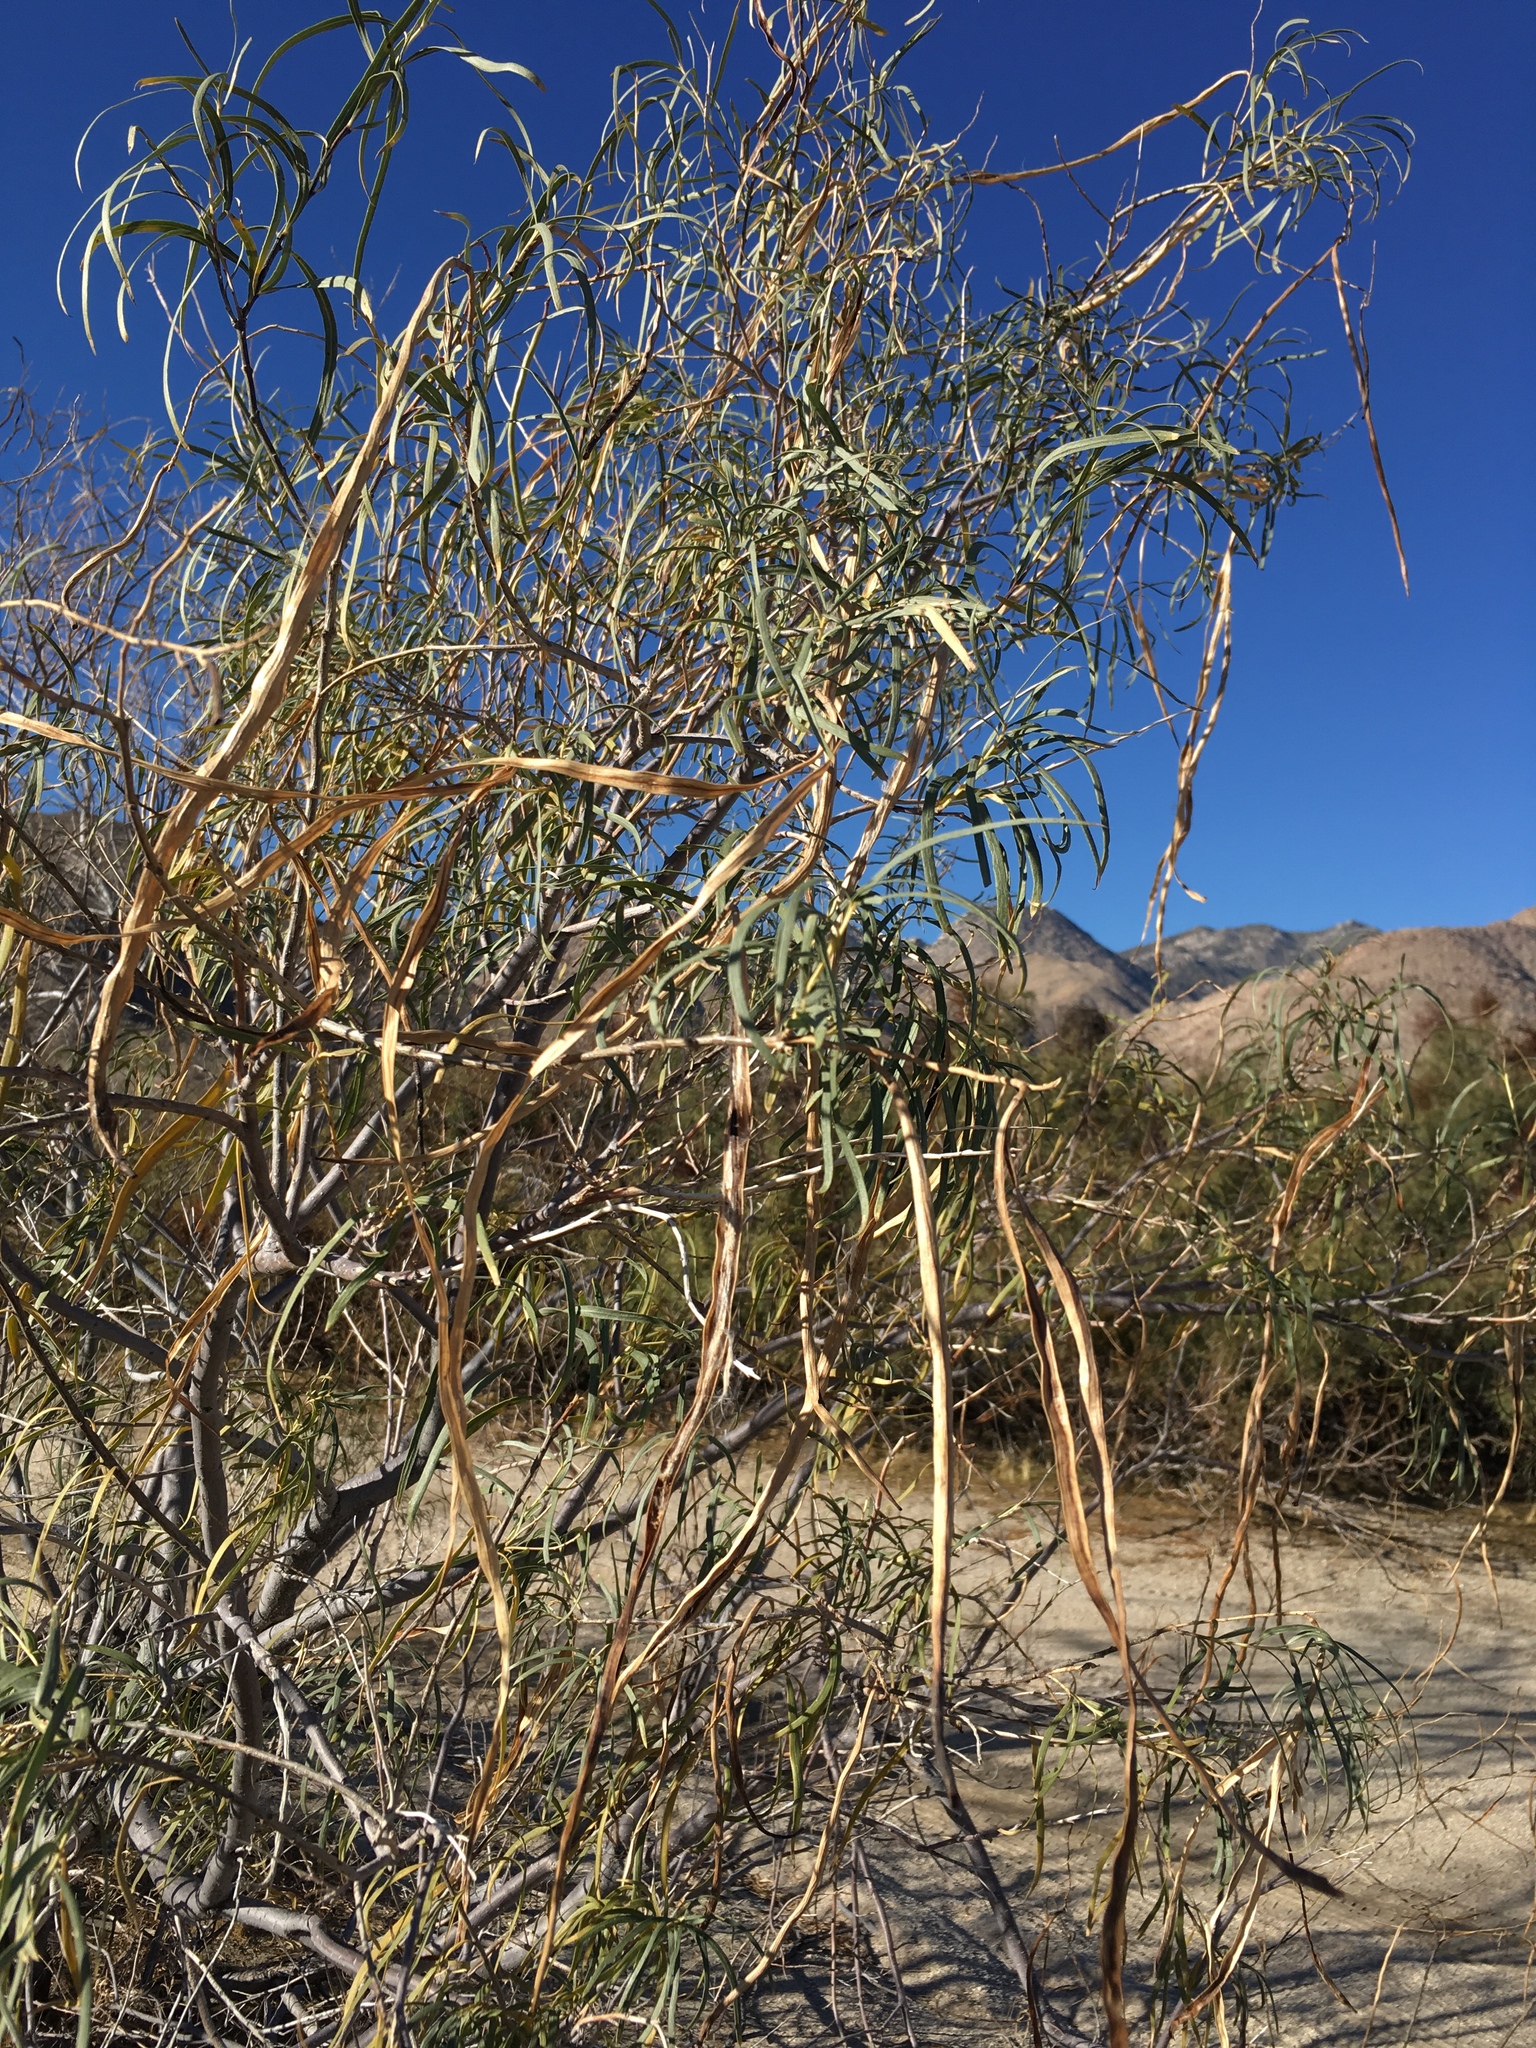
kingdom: Plantae
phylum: Tracheophyta
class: Magnoliopsida
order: Lamiales
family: Bignoniaceae
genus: Chilopsis
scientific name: Chilopsis linearis
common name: Desert-willow
